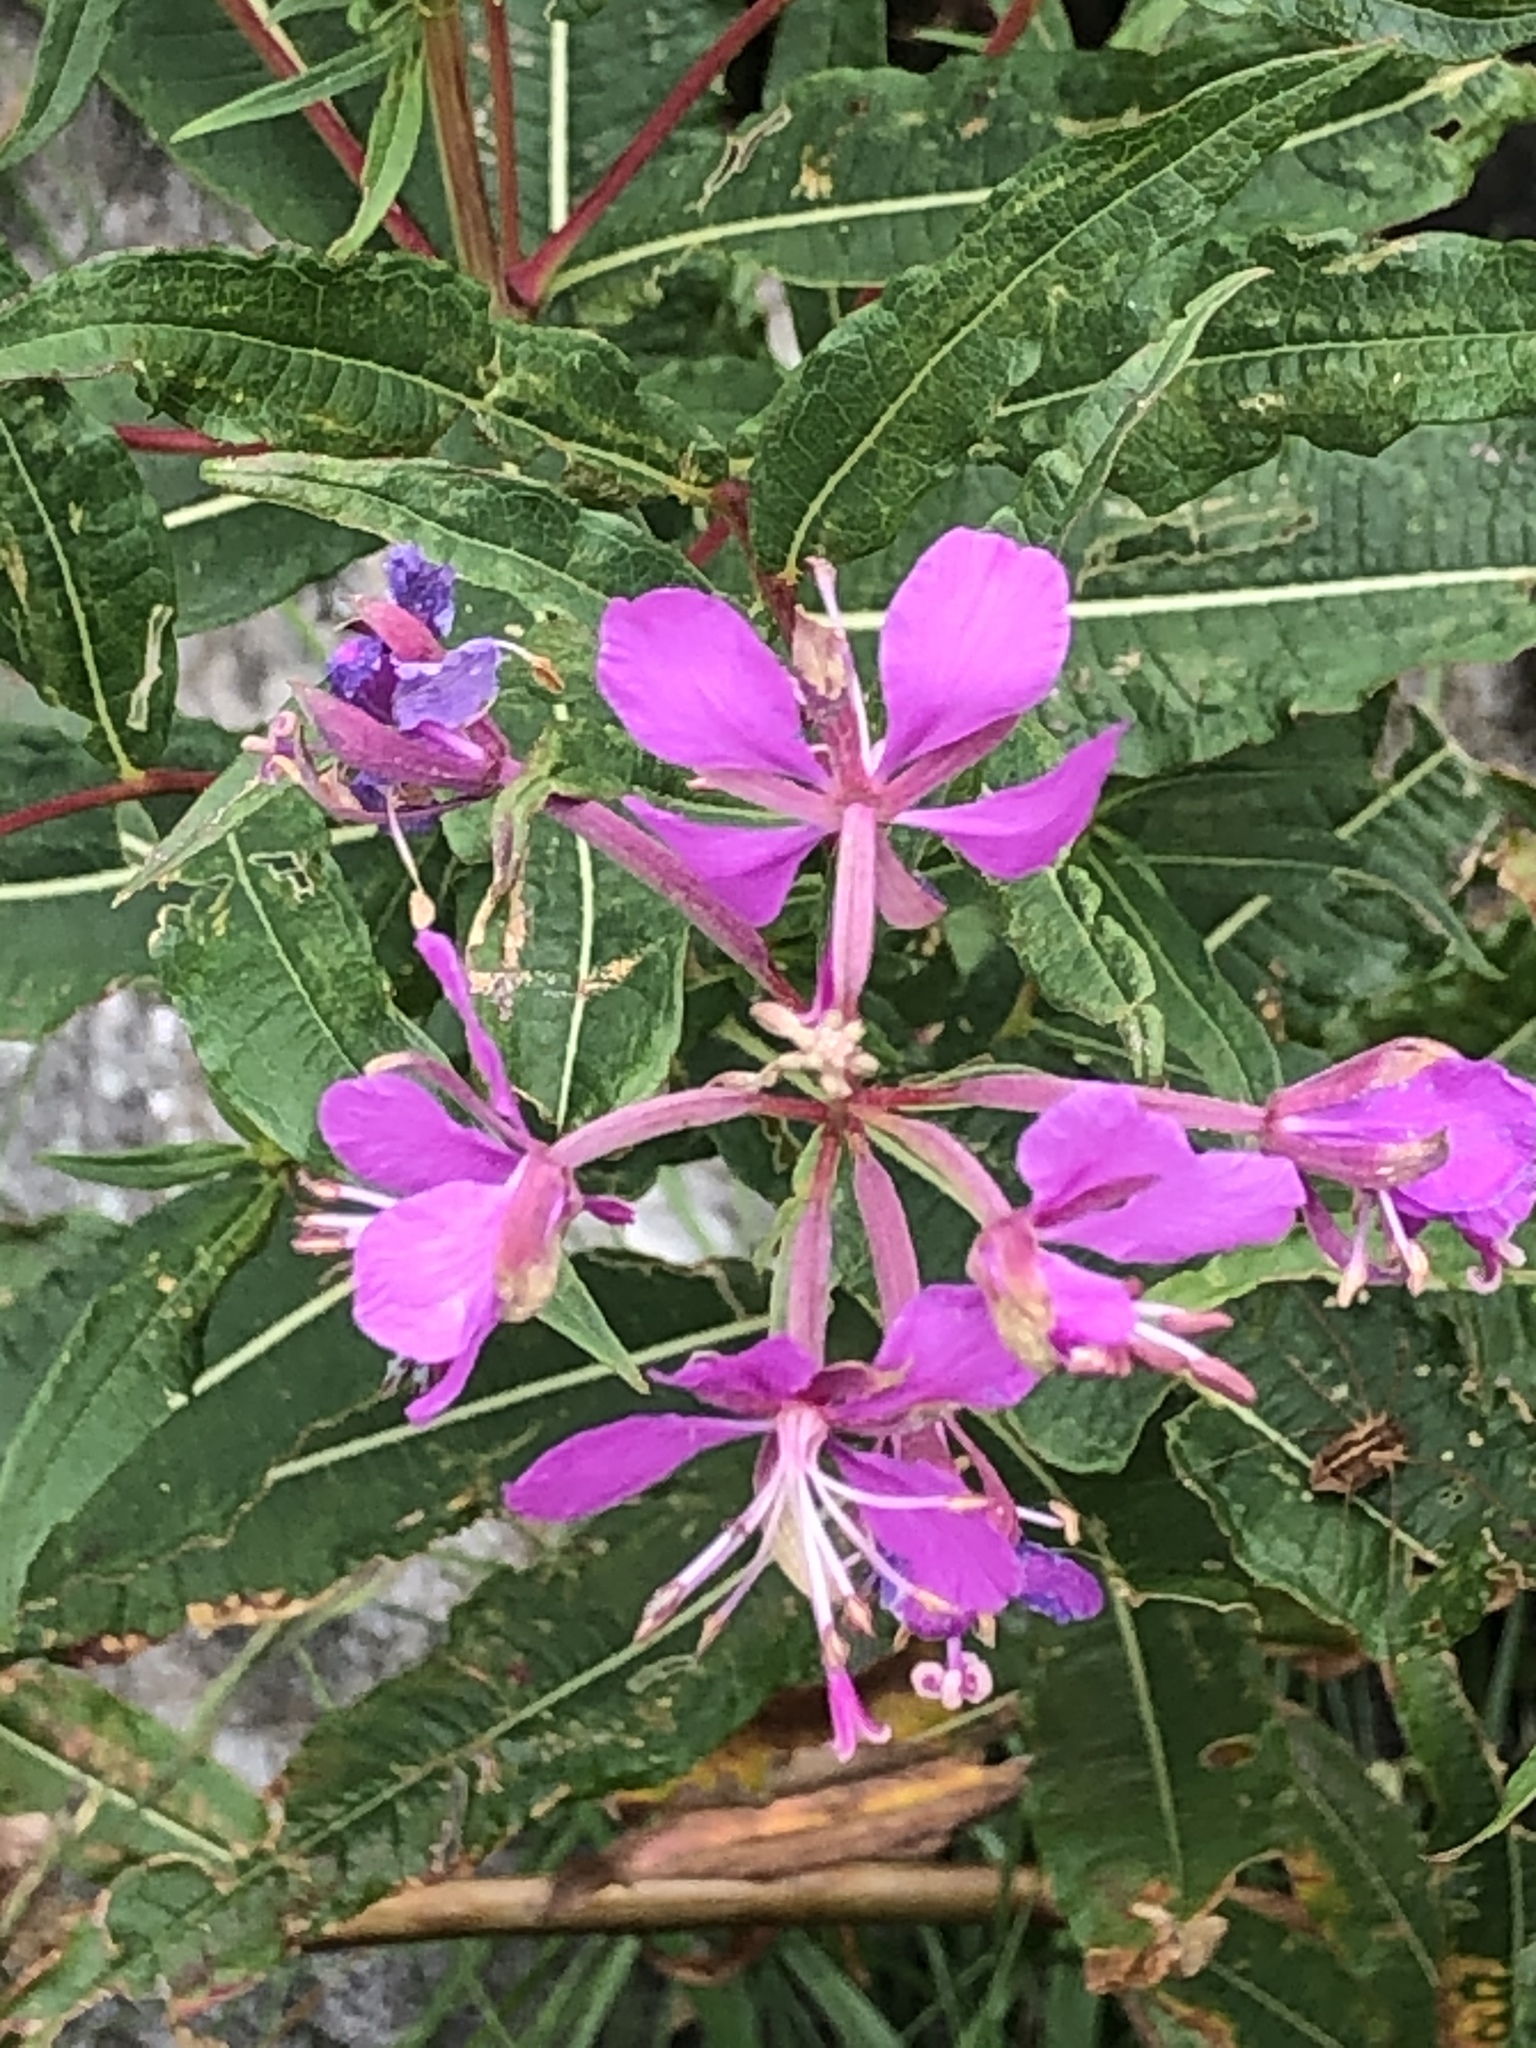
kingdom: Plantae
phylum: Tracheophyta
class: Magnoliopsida
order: Myrtales
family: Onagraceae
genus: Chamaenerion
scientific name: Chamaenerion angustifolium
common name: Fireweed
